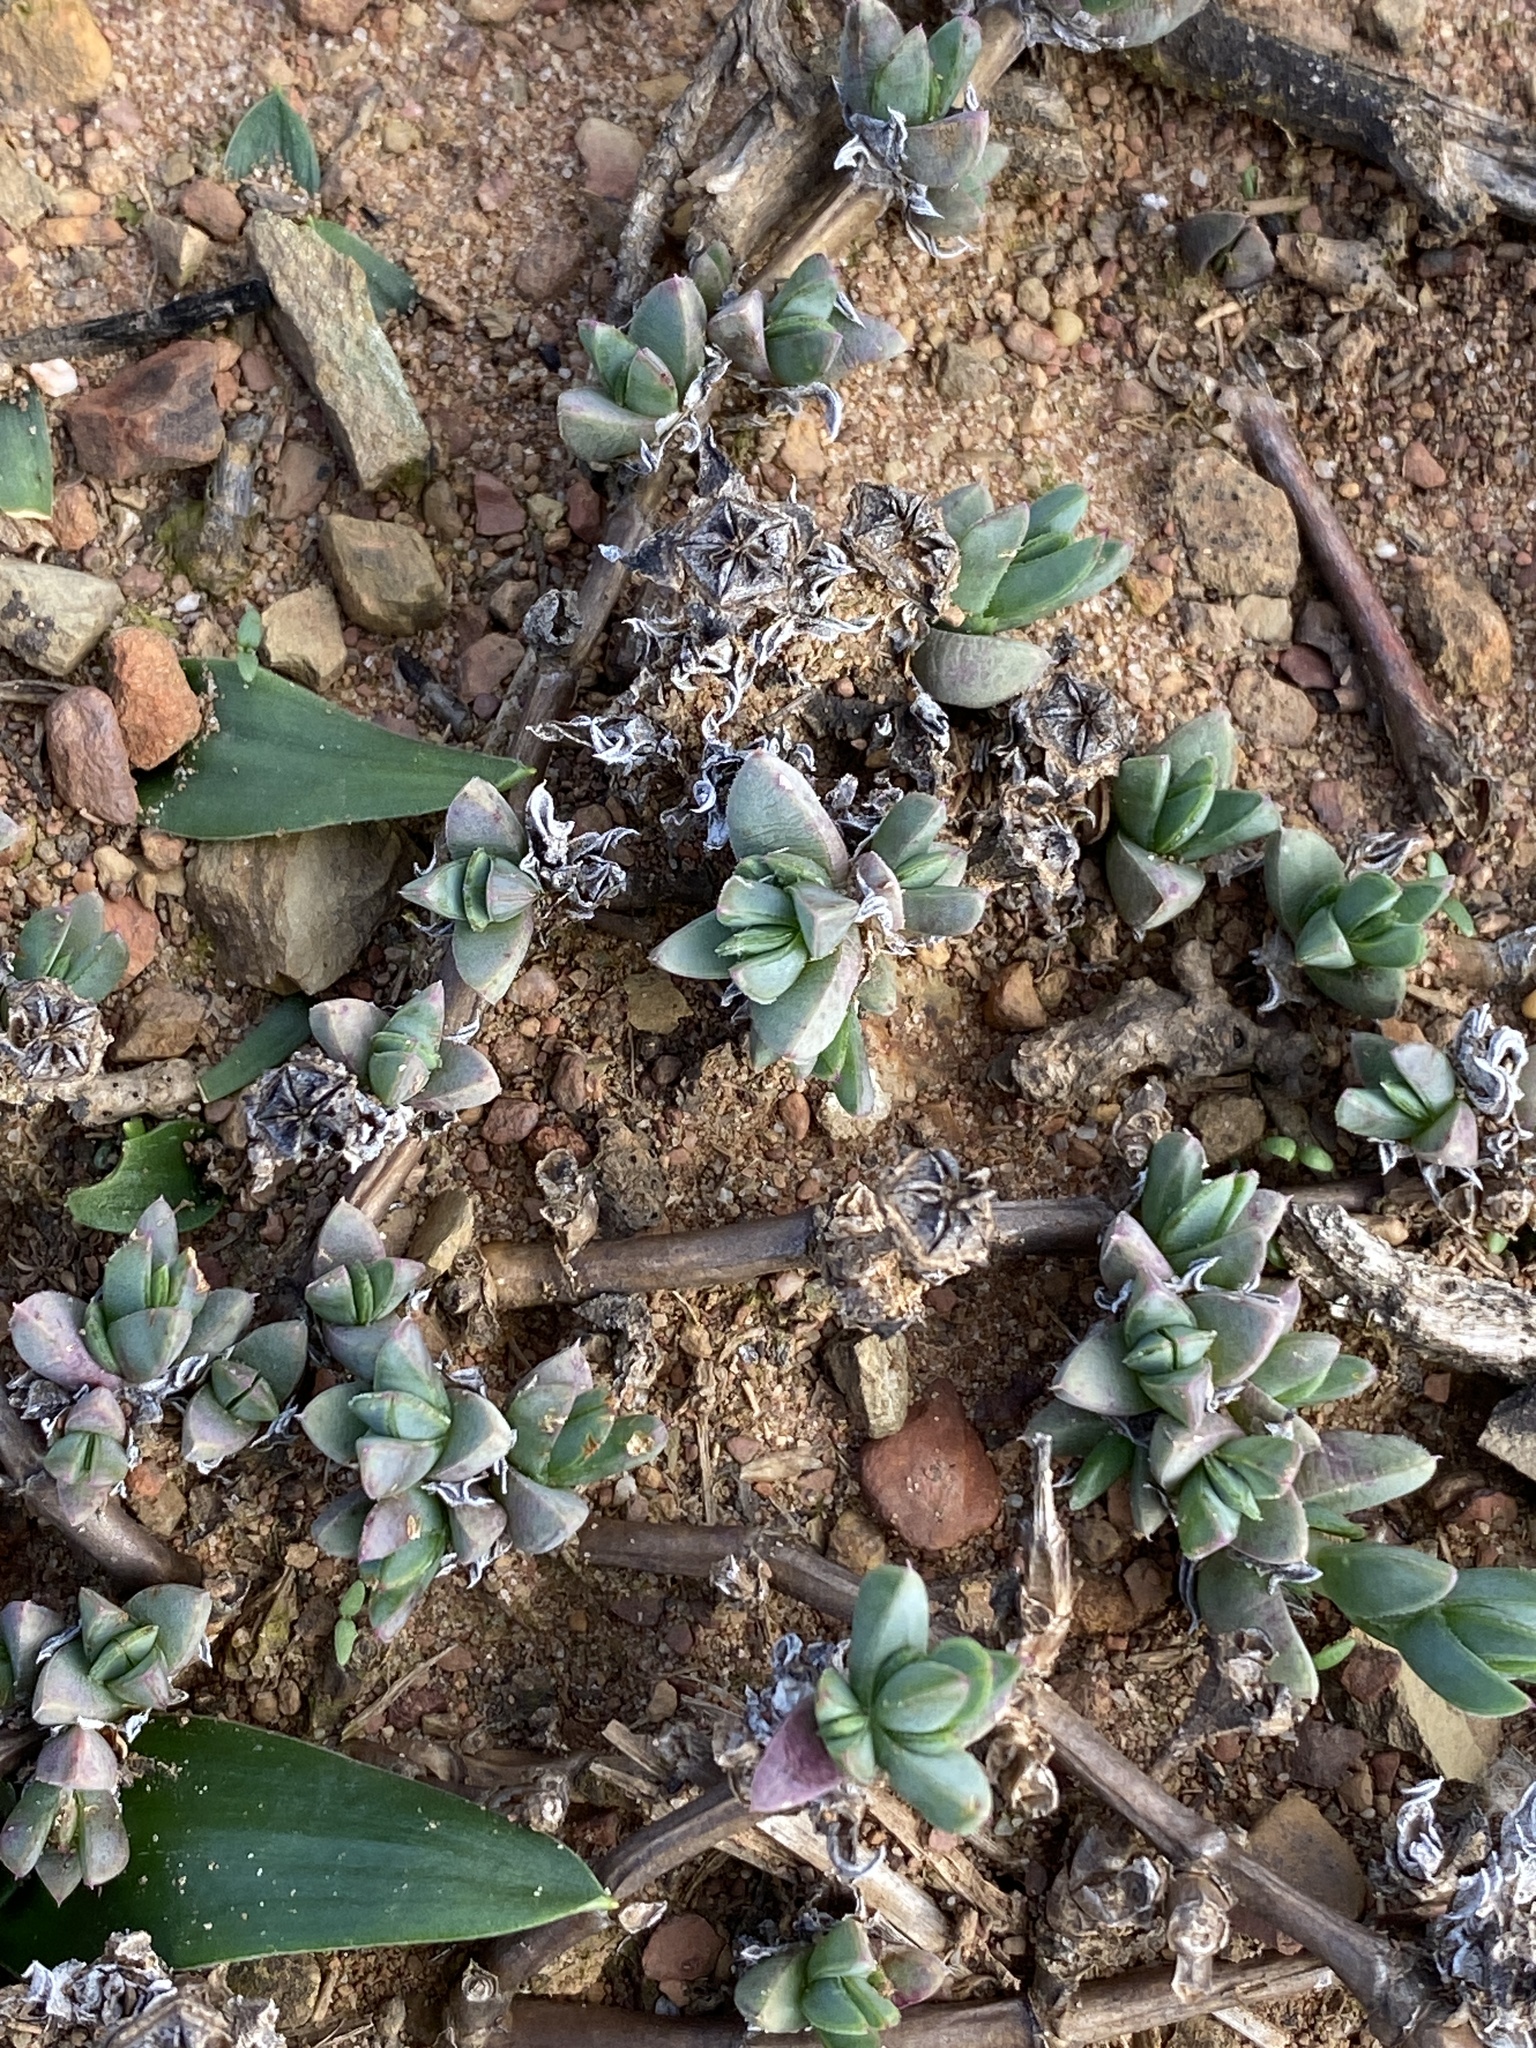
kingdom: Plantae
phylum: Tracheophyta
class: Magnoliopsida
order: Caryophyllales
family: Aizoaceae
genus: Antimima
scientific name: Antimima aristulata
